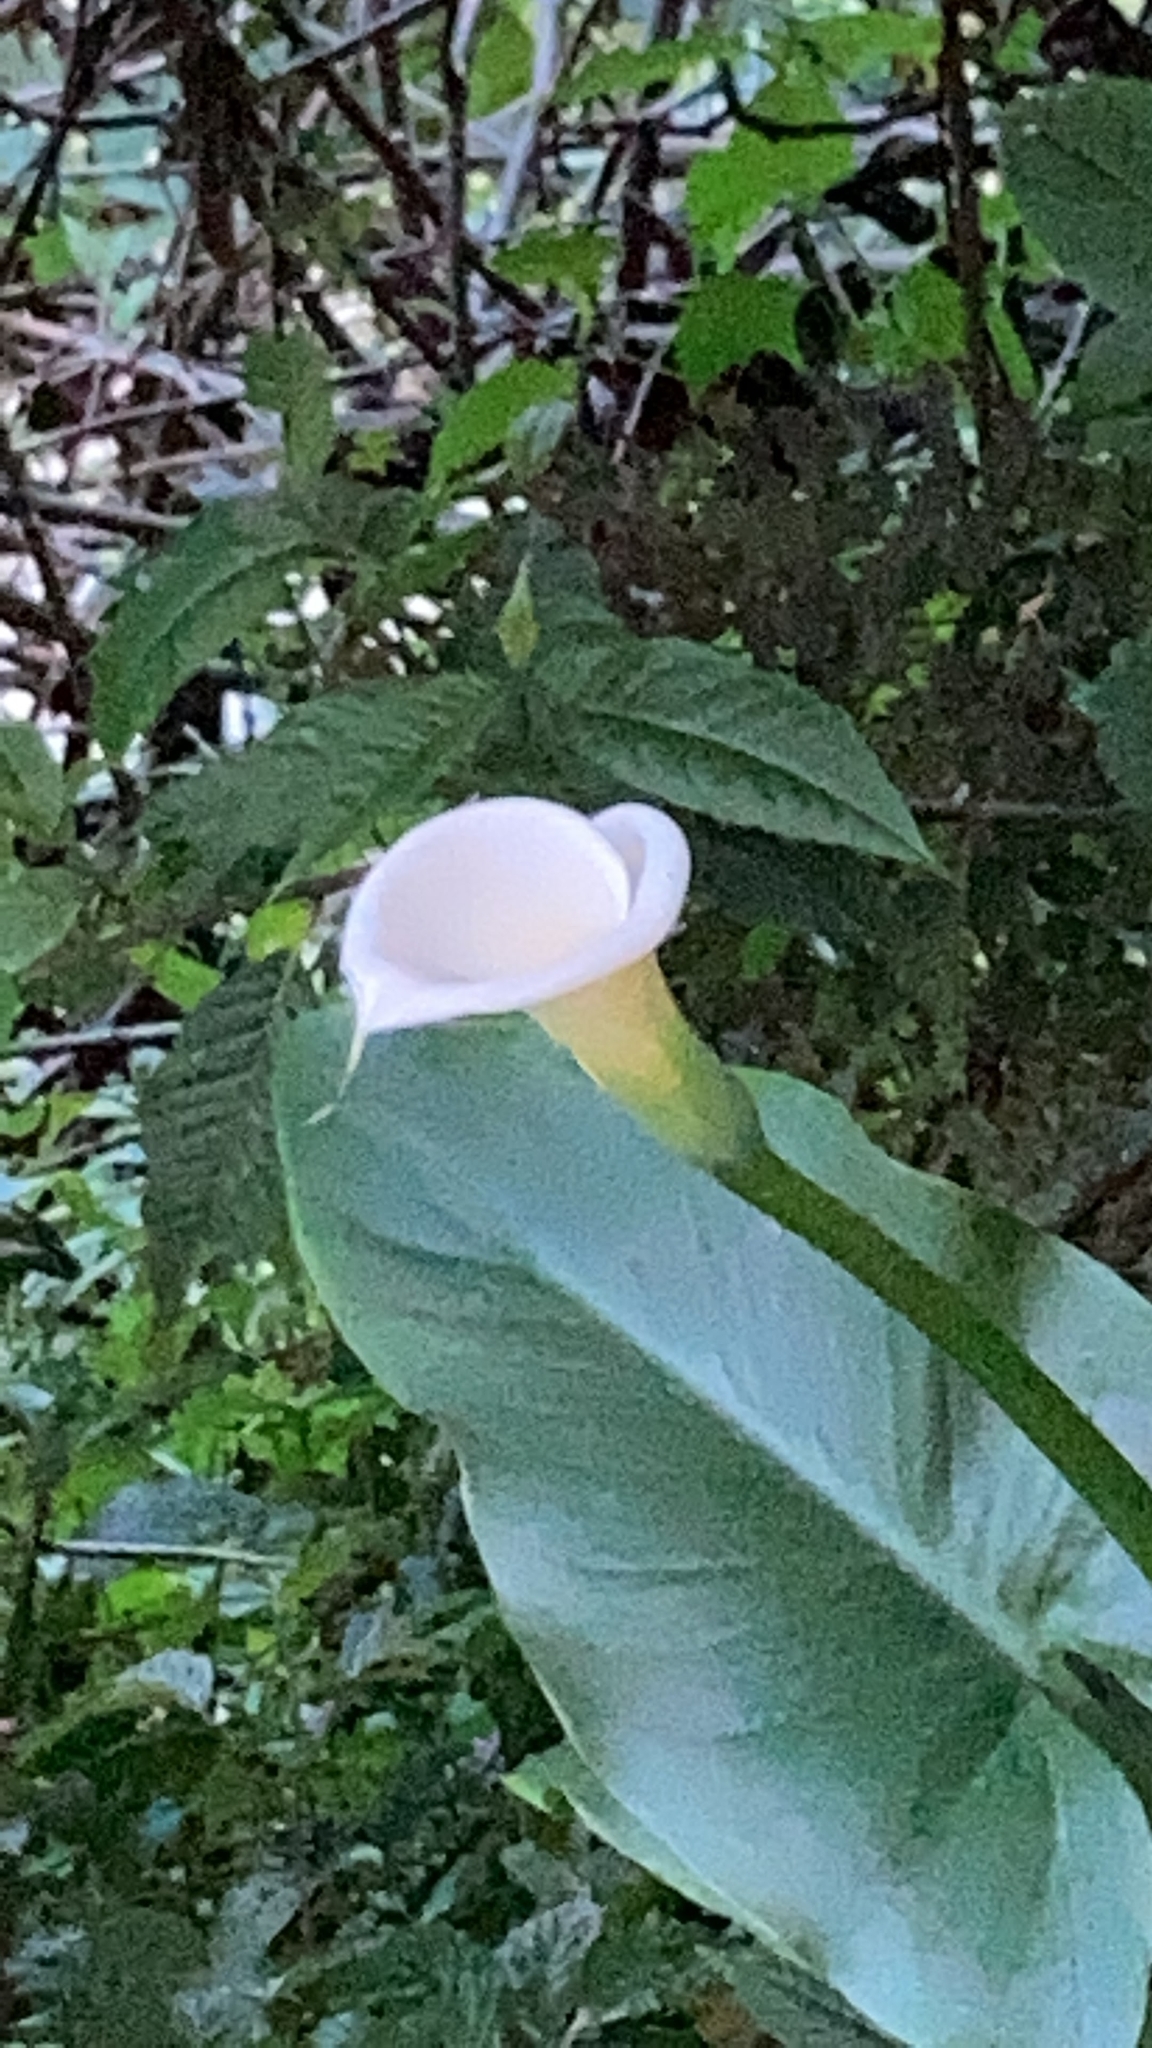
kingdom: Plantae
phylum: Tracheophyta
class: Liliopsida
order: Alismatales
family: Araceae
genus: Zantedeschia
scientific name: Zantedeschia aethiopica
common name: Altar-lily
